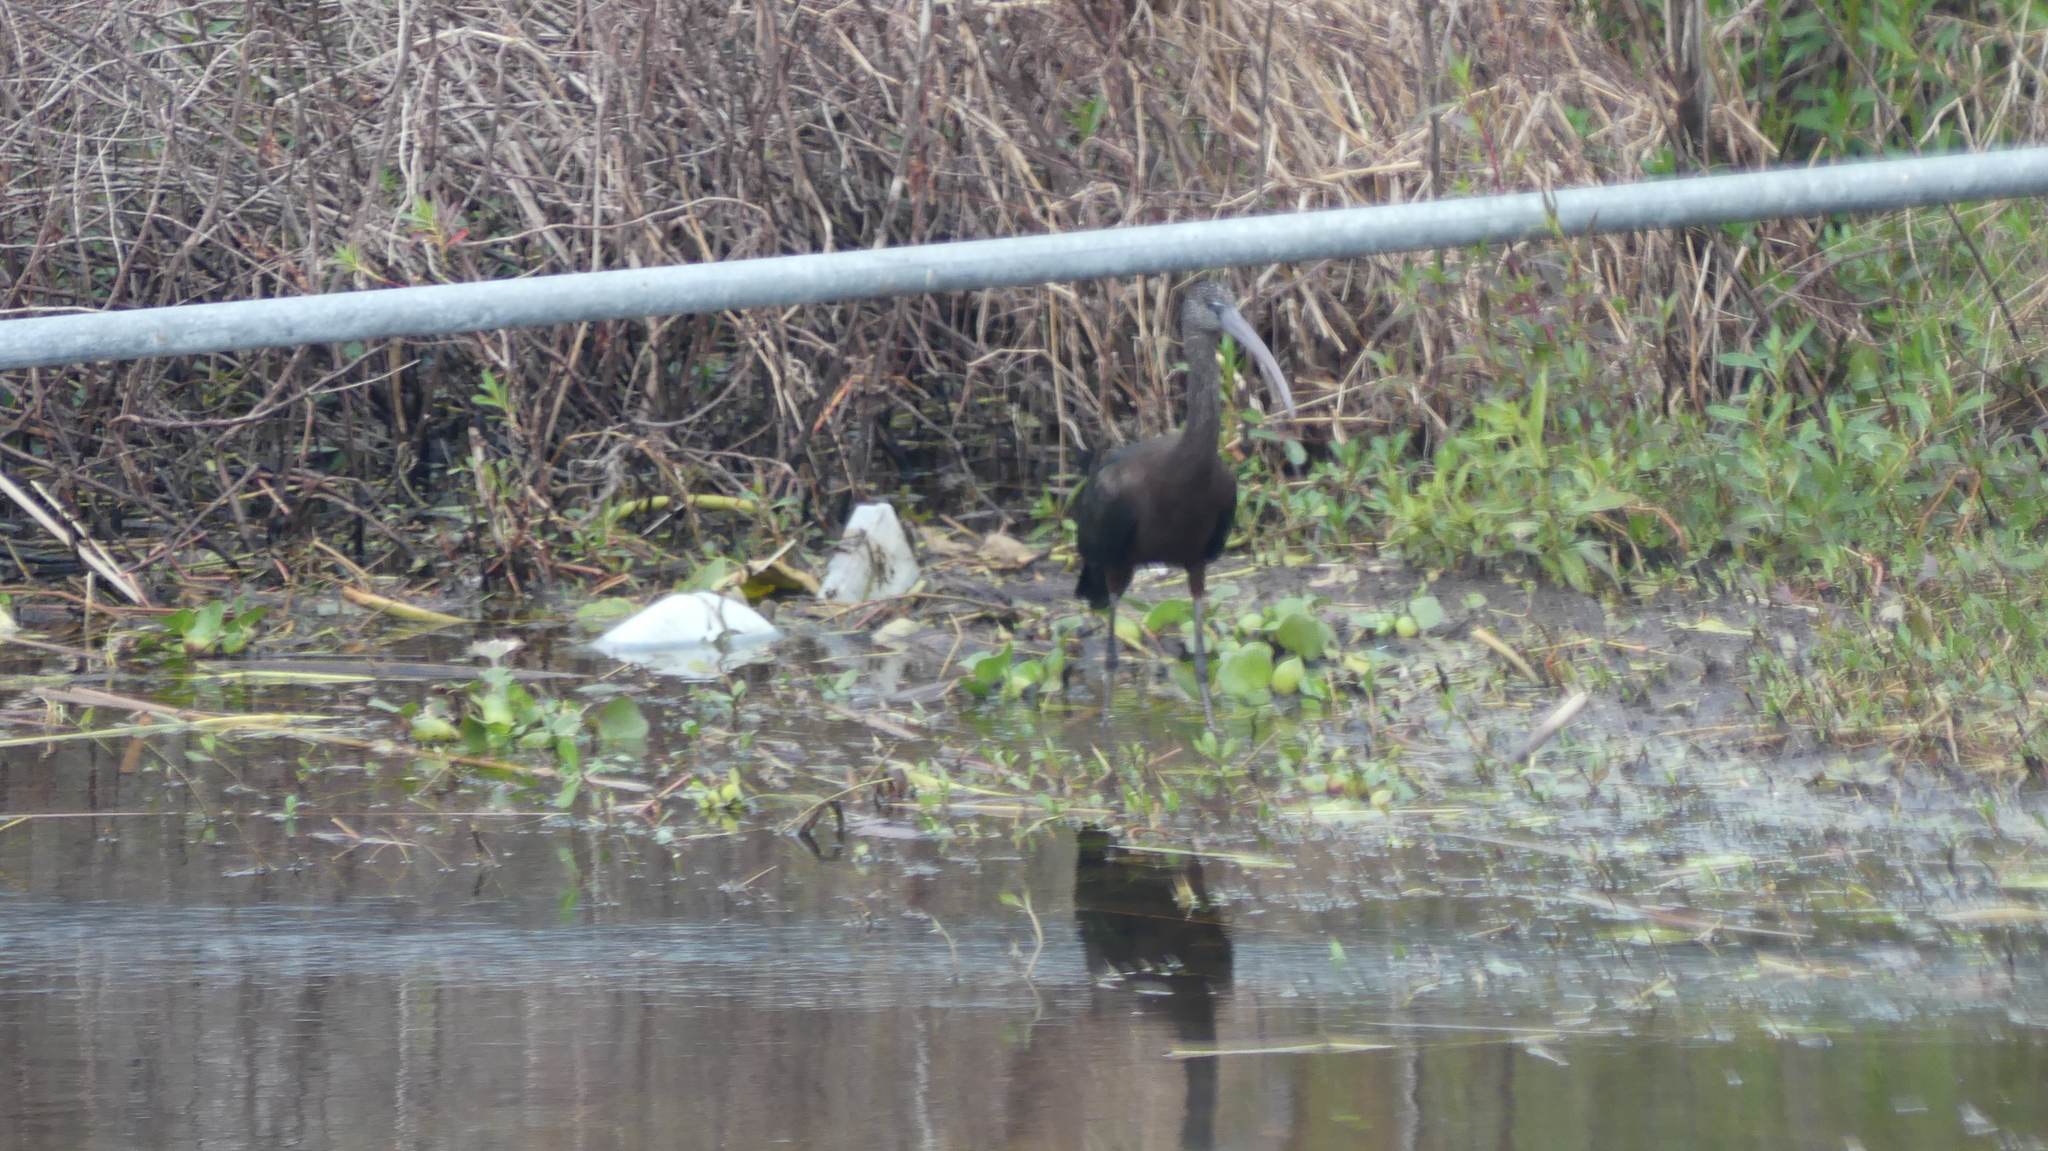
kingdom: Animalia
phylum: Chordata
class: Aves
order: Pelecaniformes
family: Threskiornithidae
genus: Plegadis
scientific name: Plegadis falcinellus
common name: Glossy ibis
